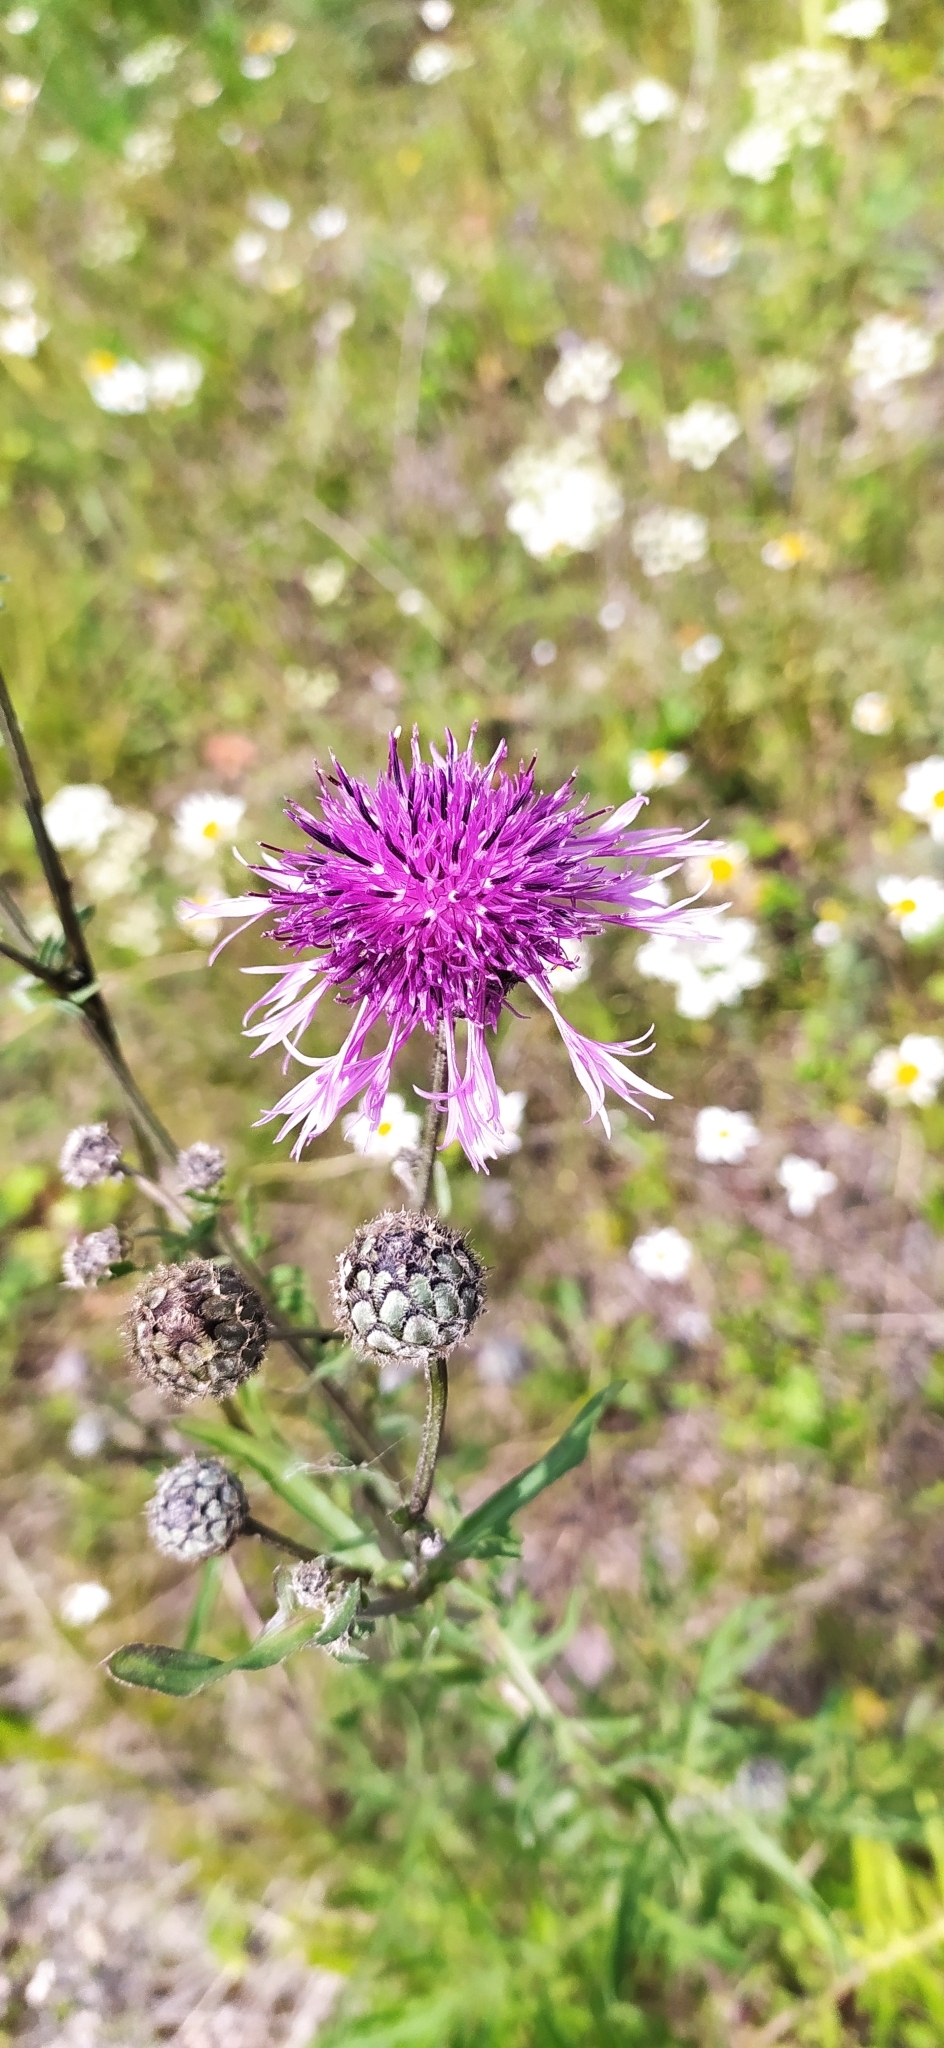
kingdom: Plantae
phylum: Tracheophyta
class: Magnoliopsida
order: Asterales
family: Asteraceae
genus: Centaurea
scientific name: Centaurea scabiosa
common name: Greater knapweed
